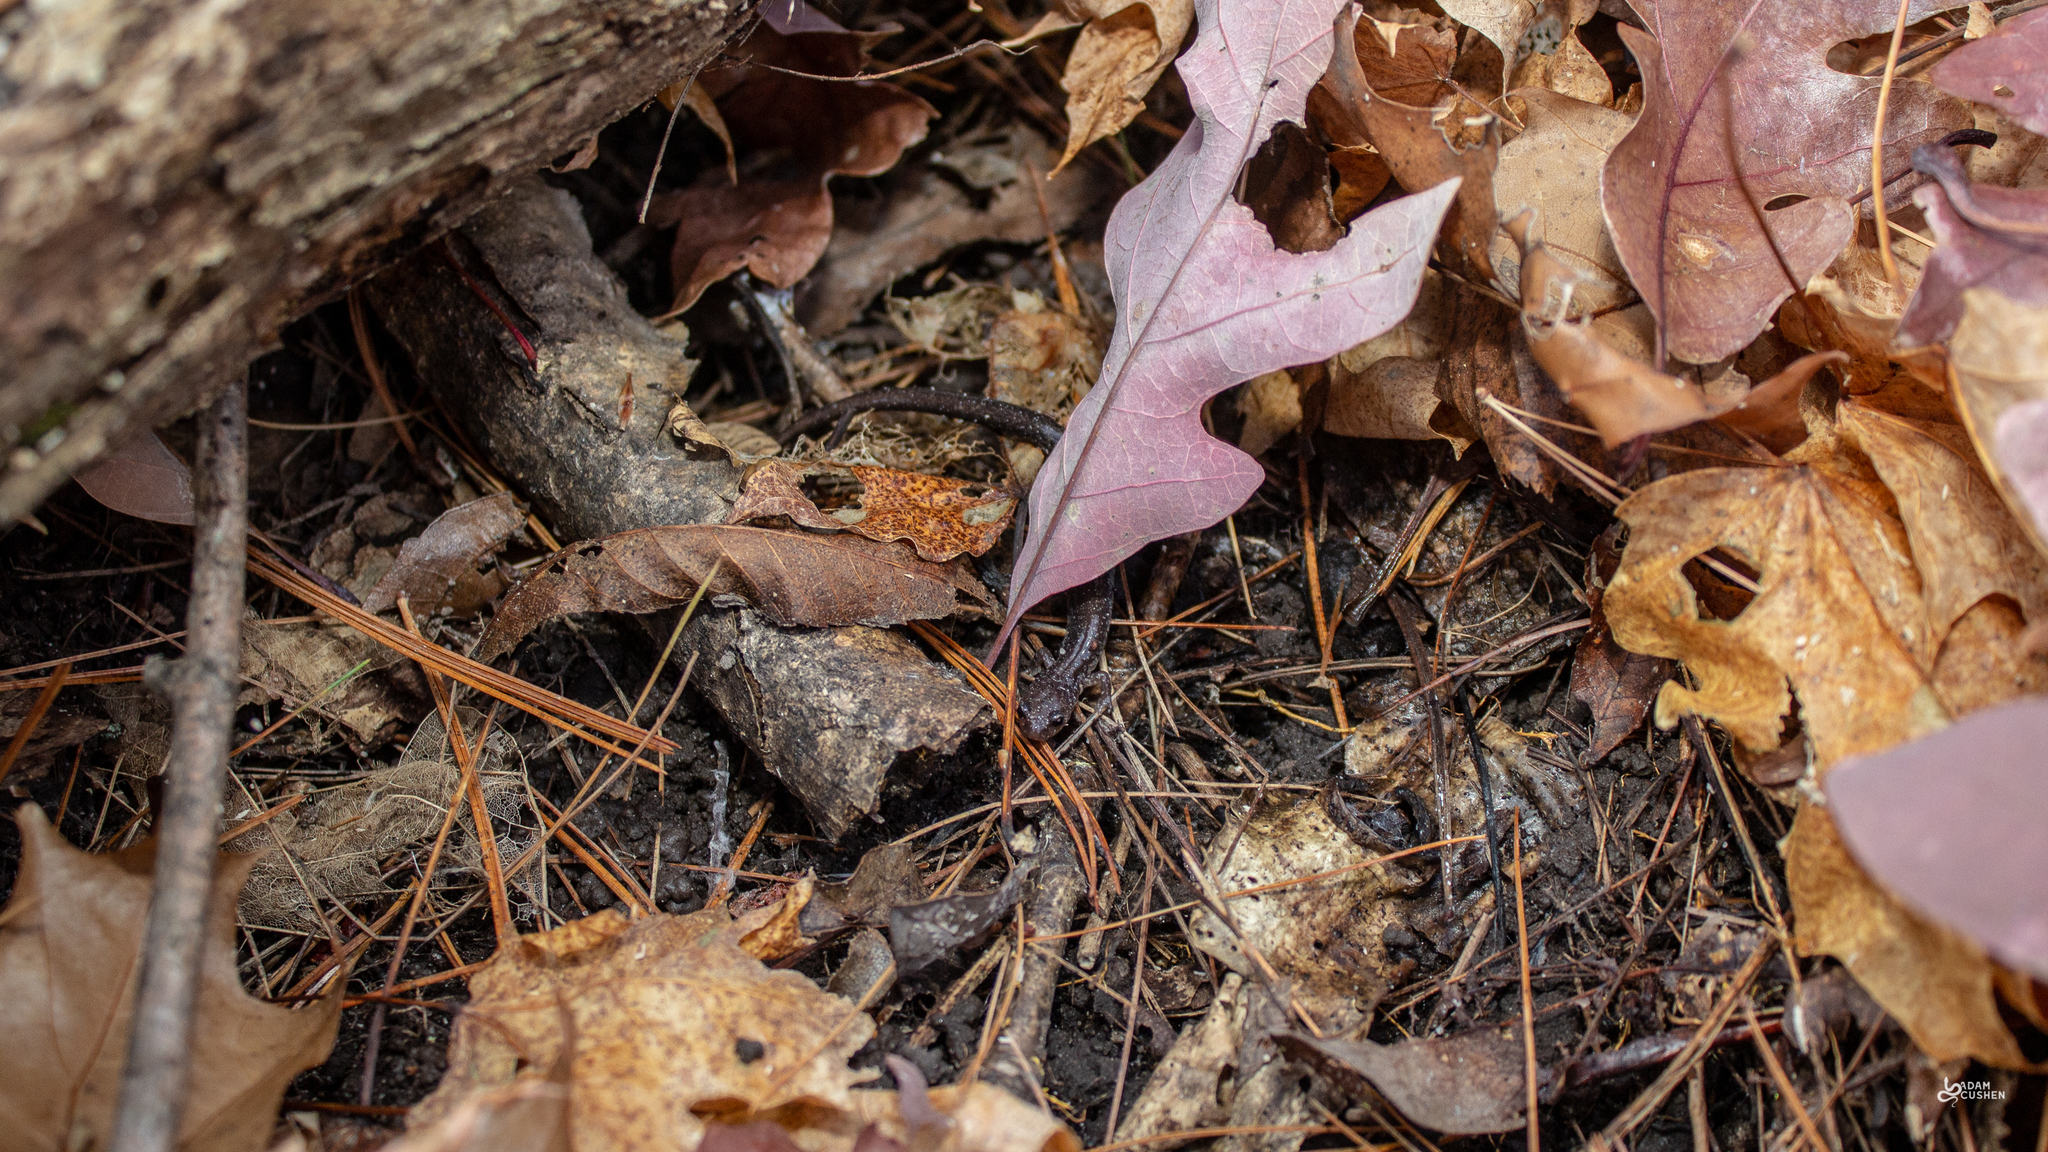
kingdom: Animalia
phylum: Chordata
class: Amphibia
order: Caudata
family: Plethodontidae
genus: Plethodon
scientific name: Plethodon cinereus
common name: Redback salamander
